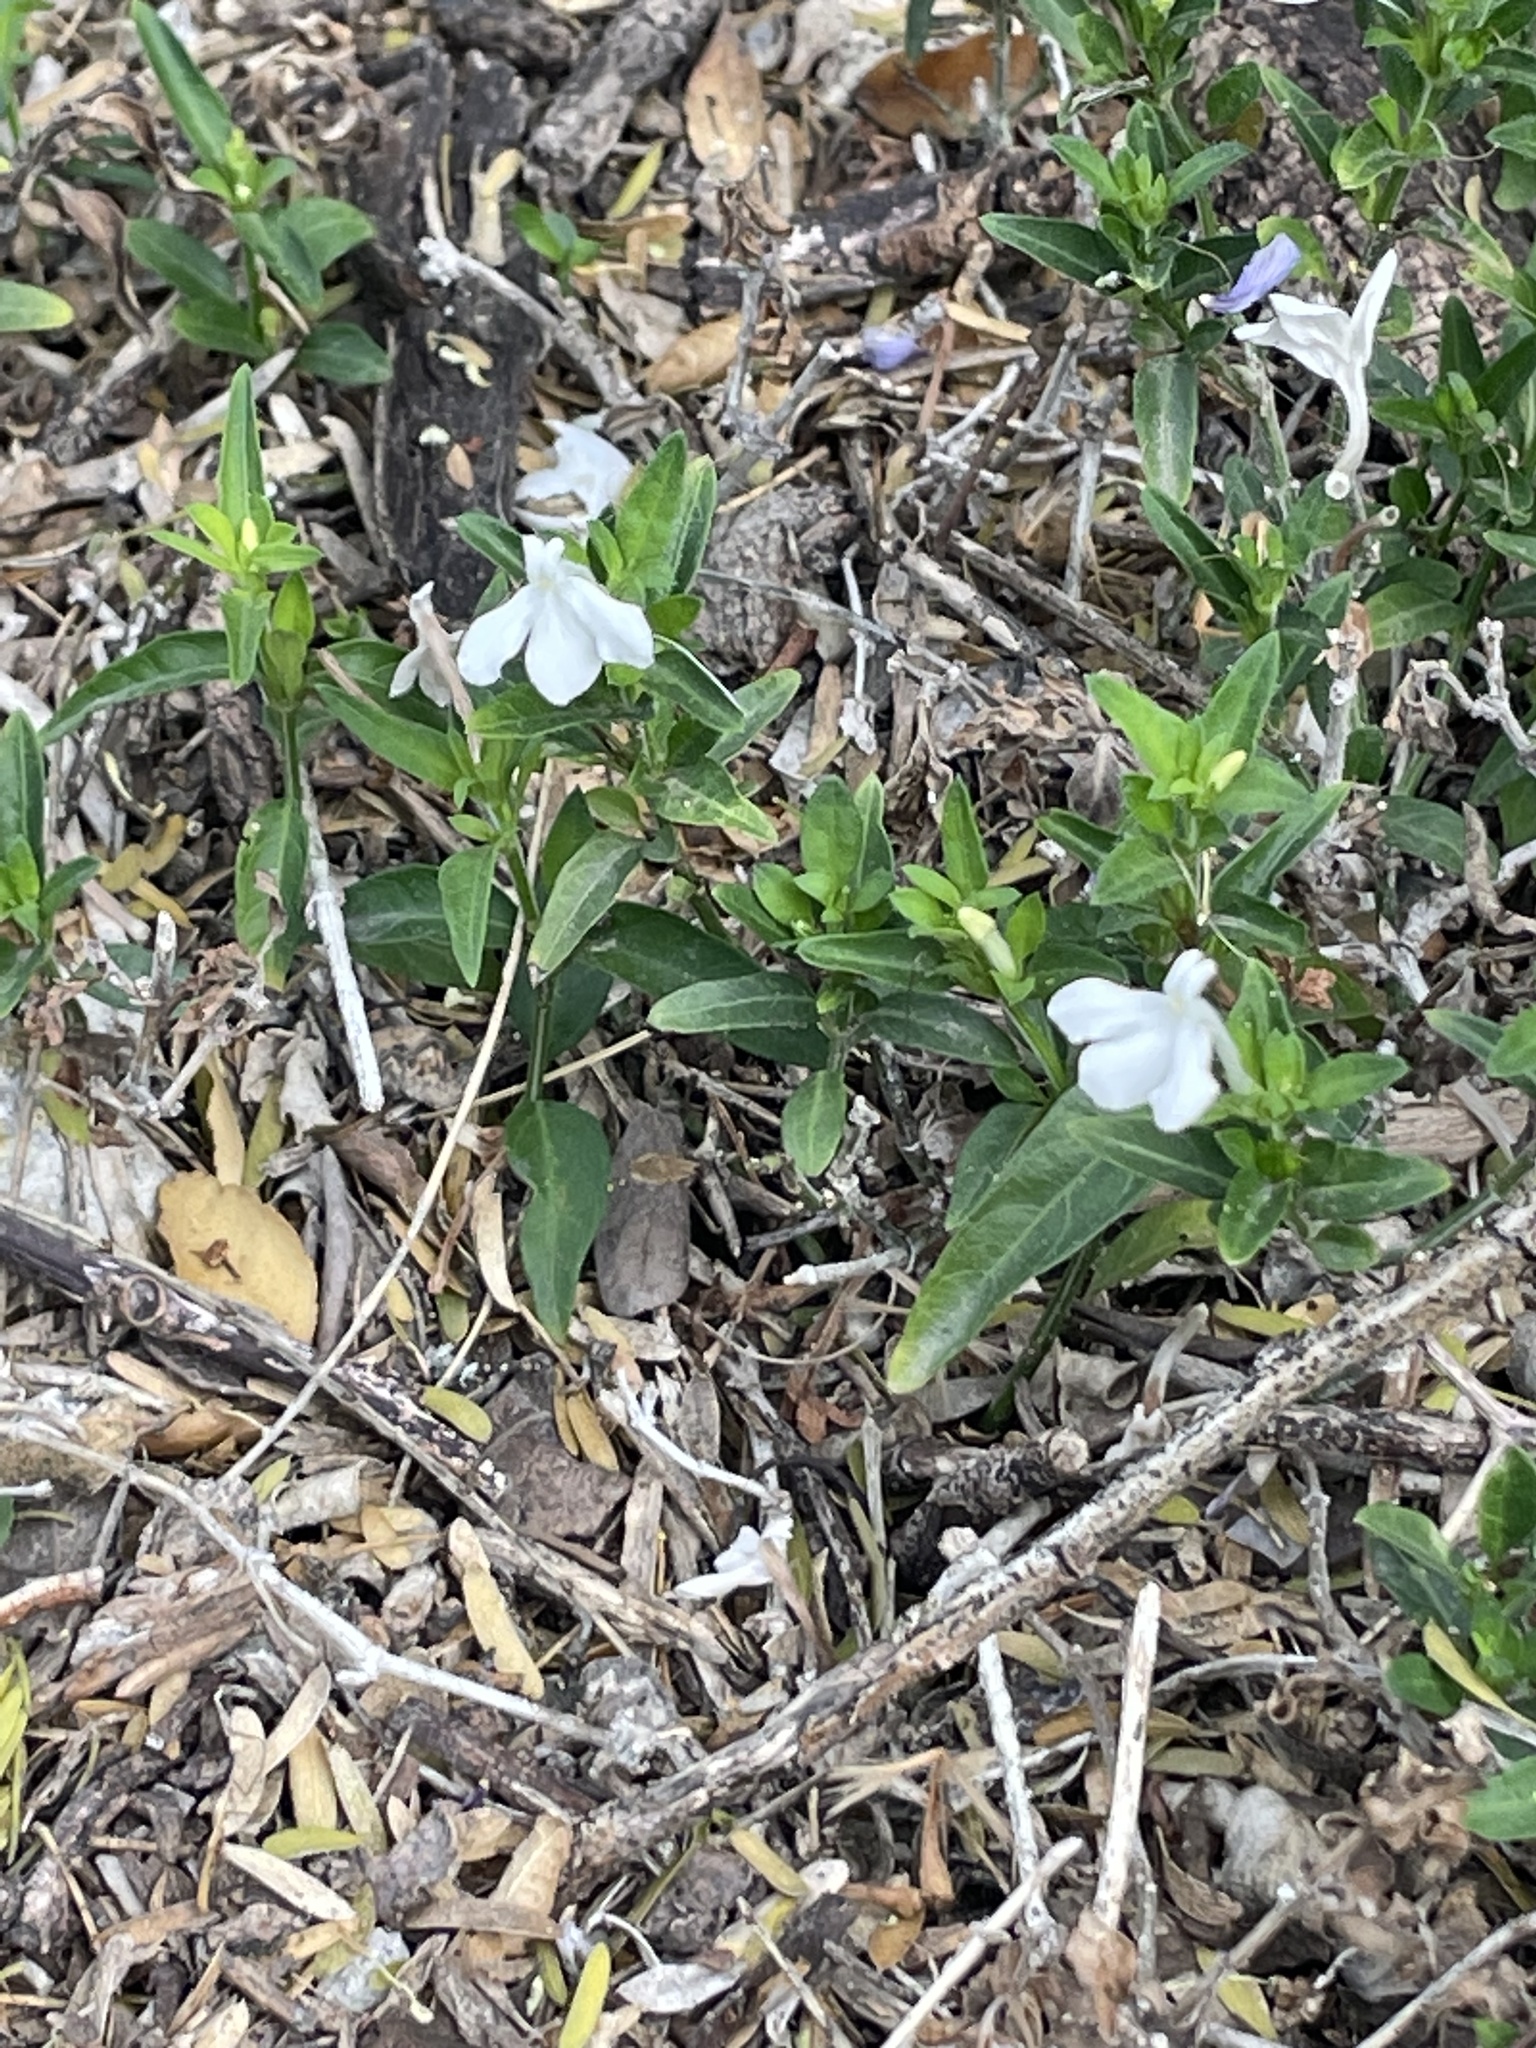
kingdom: Plantae
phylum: Tracheophyta
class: Magnoliopsida
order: Lamiales
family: Acanthaceae
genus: Justicia
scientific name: Justicia pilosella
